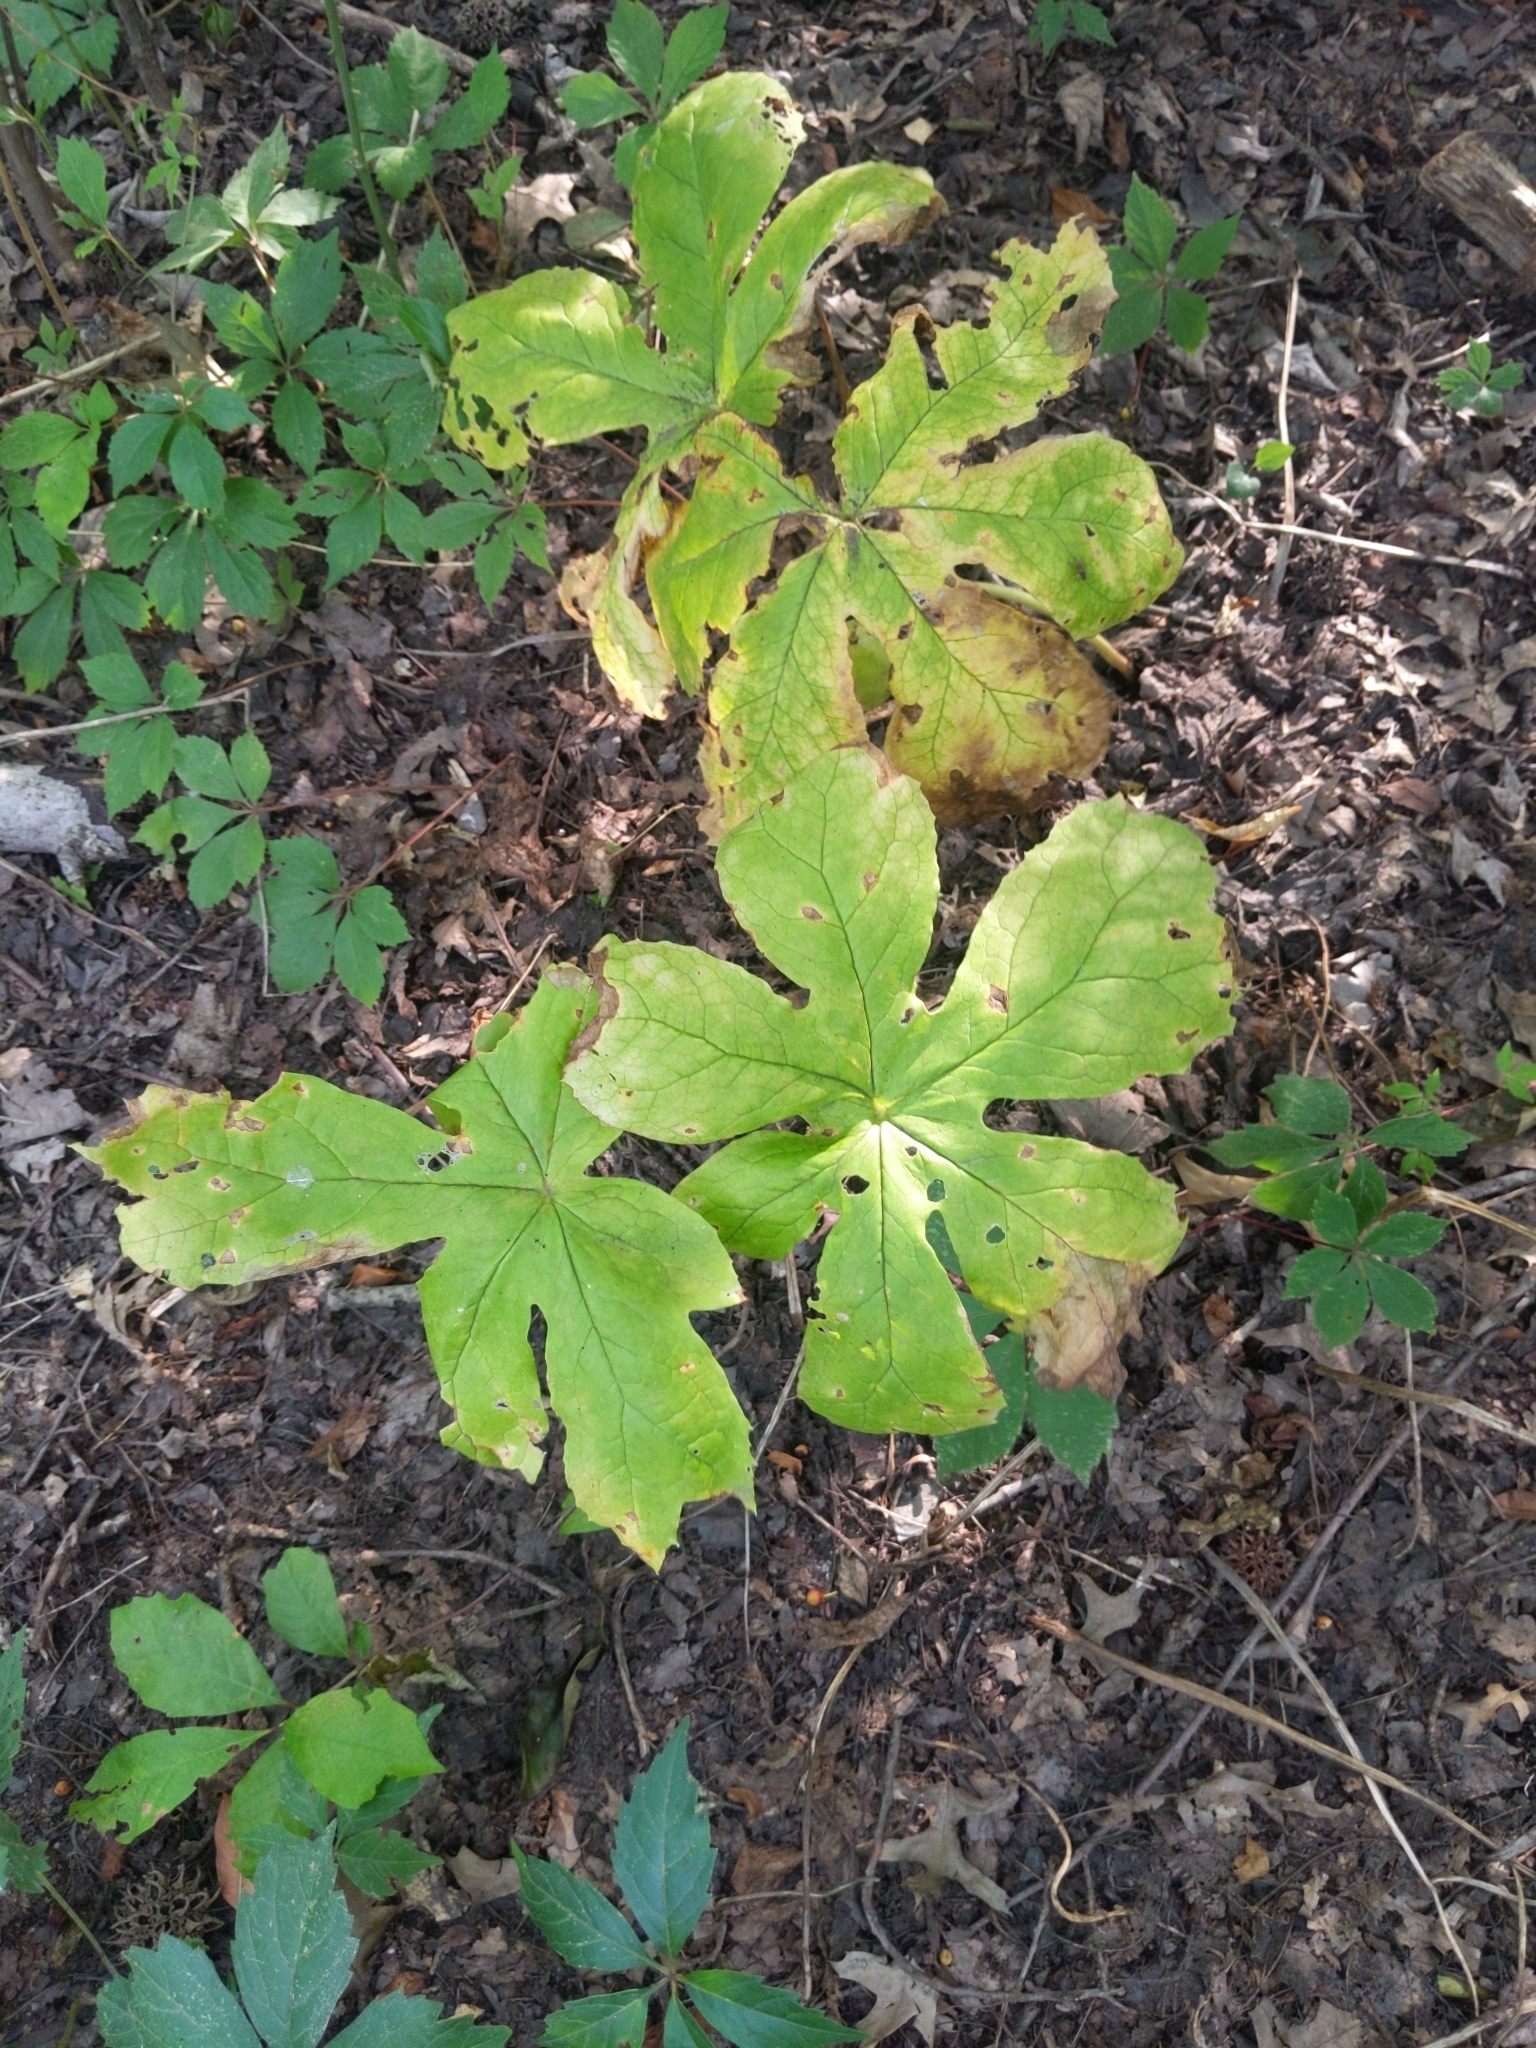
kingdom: Plantae
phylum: Tracheophyta
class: Magnoliopsida
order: Ranunculales
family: Berberidaceae
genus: Podophyllum
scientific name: Podophyllum peltatum
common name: Wild mandrake
